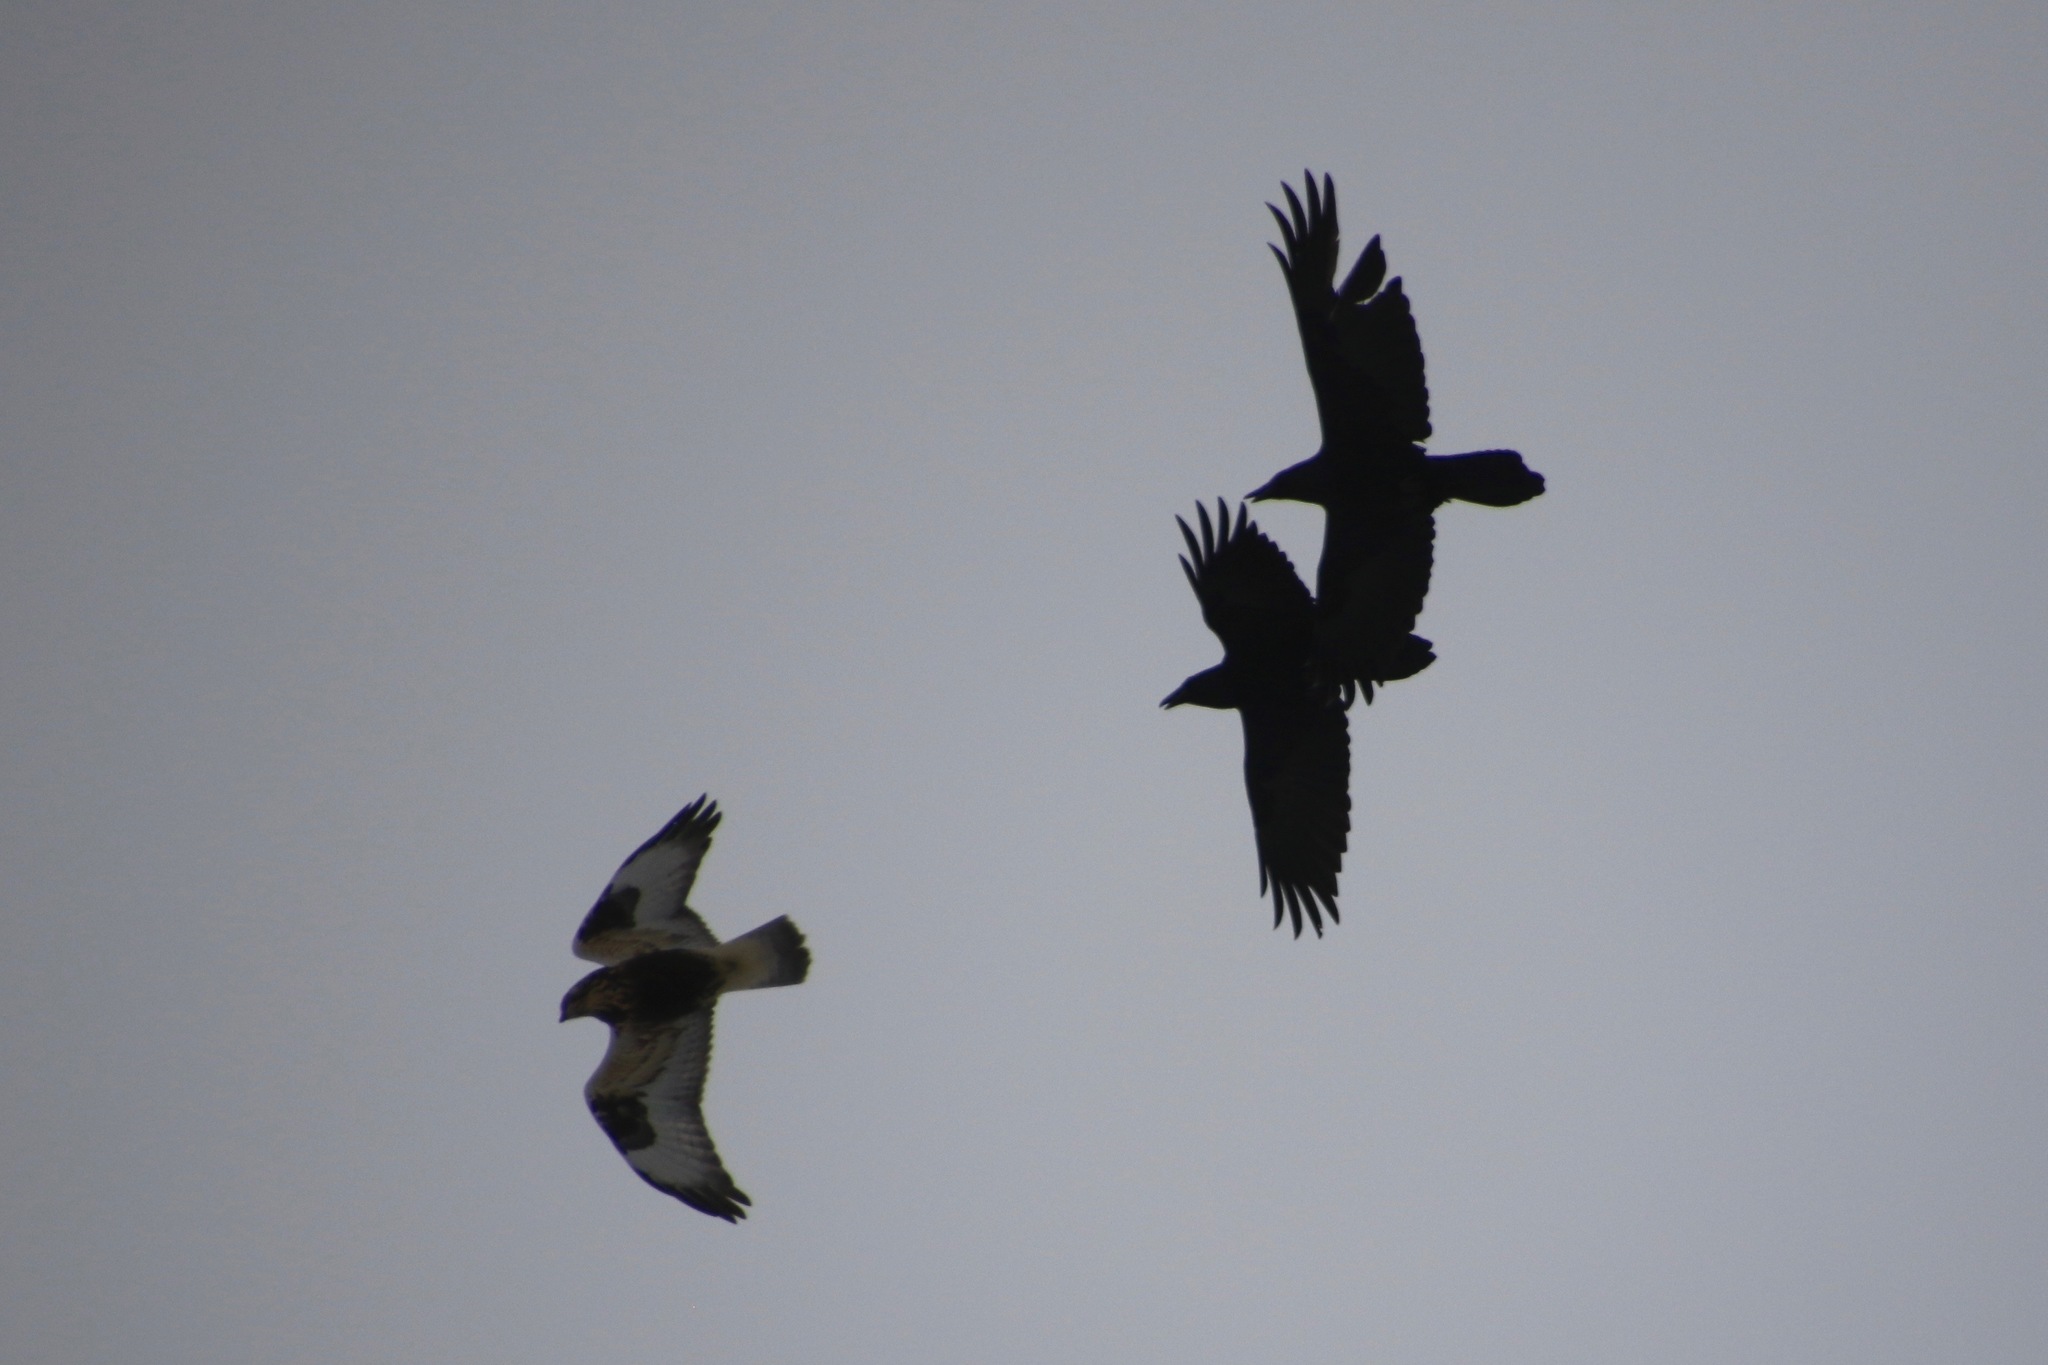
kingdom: Animalia
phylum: Chordata
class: Aves
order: Passeriformes
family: Corvidae
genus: Corvus
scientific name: Corvus corax
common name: Common raven
